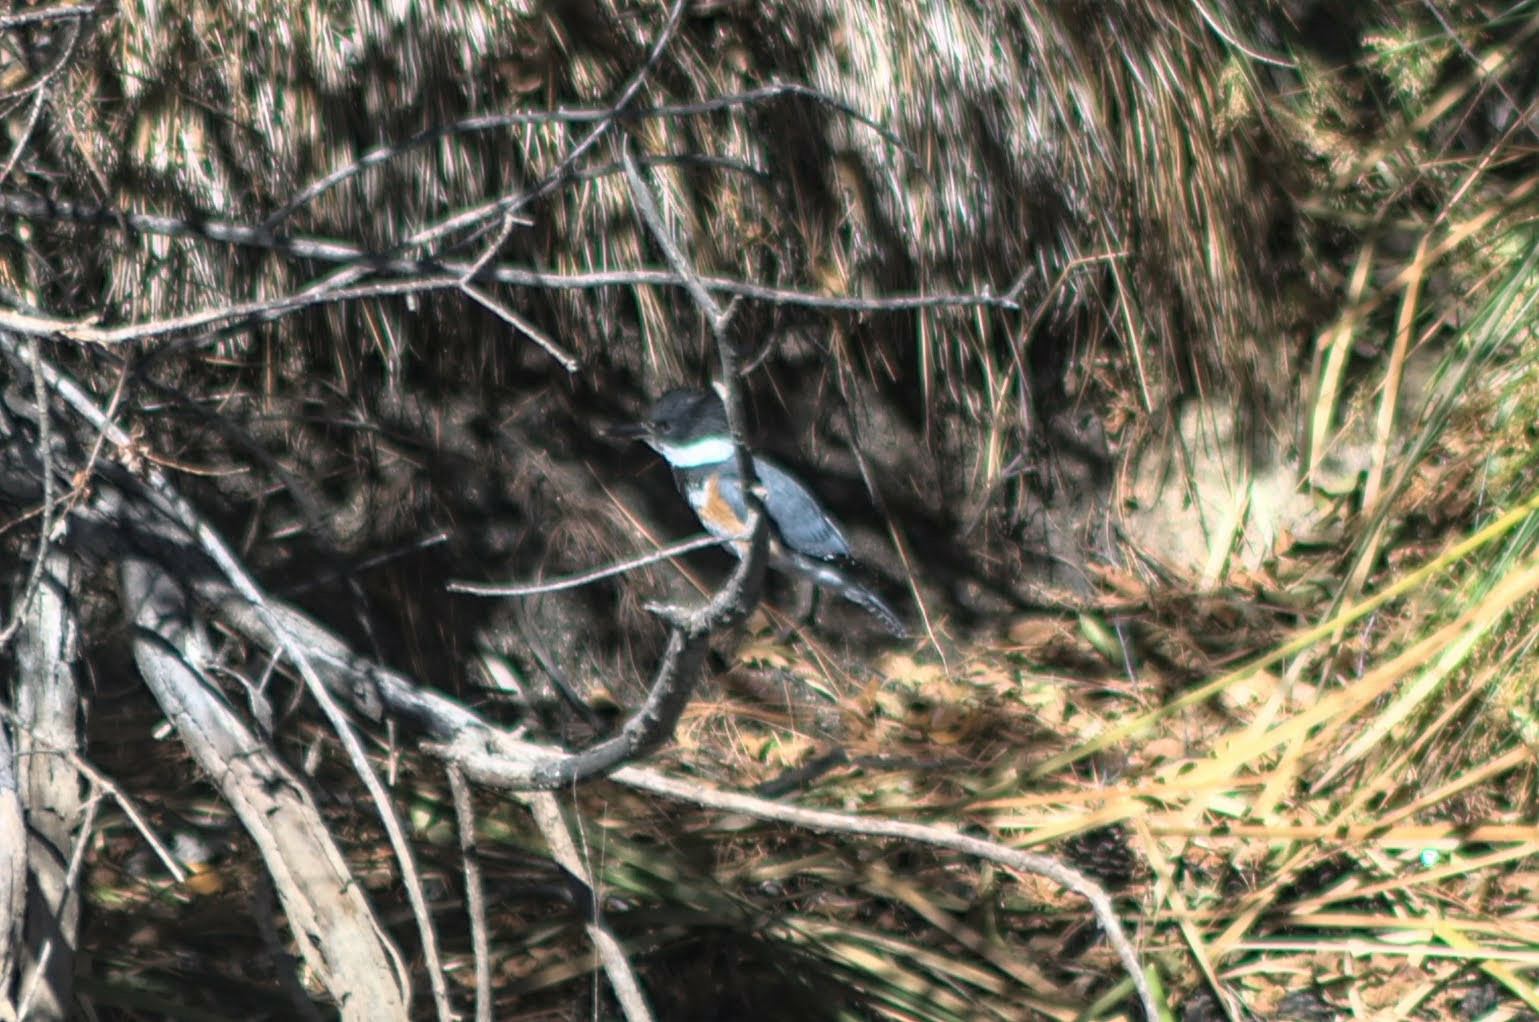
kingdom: Animalia
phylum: Chordata
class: Aves
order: Coraciiformes
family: Alcedinidae
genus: Megaceryle
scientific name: Megaceryle alcyon
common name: Belted kingfisher
